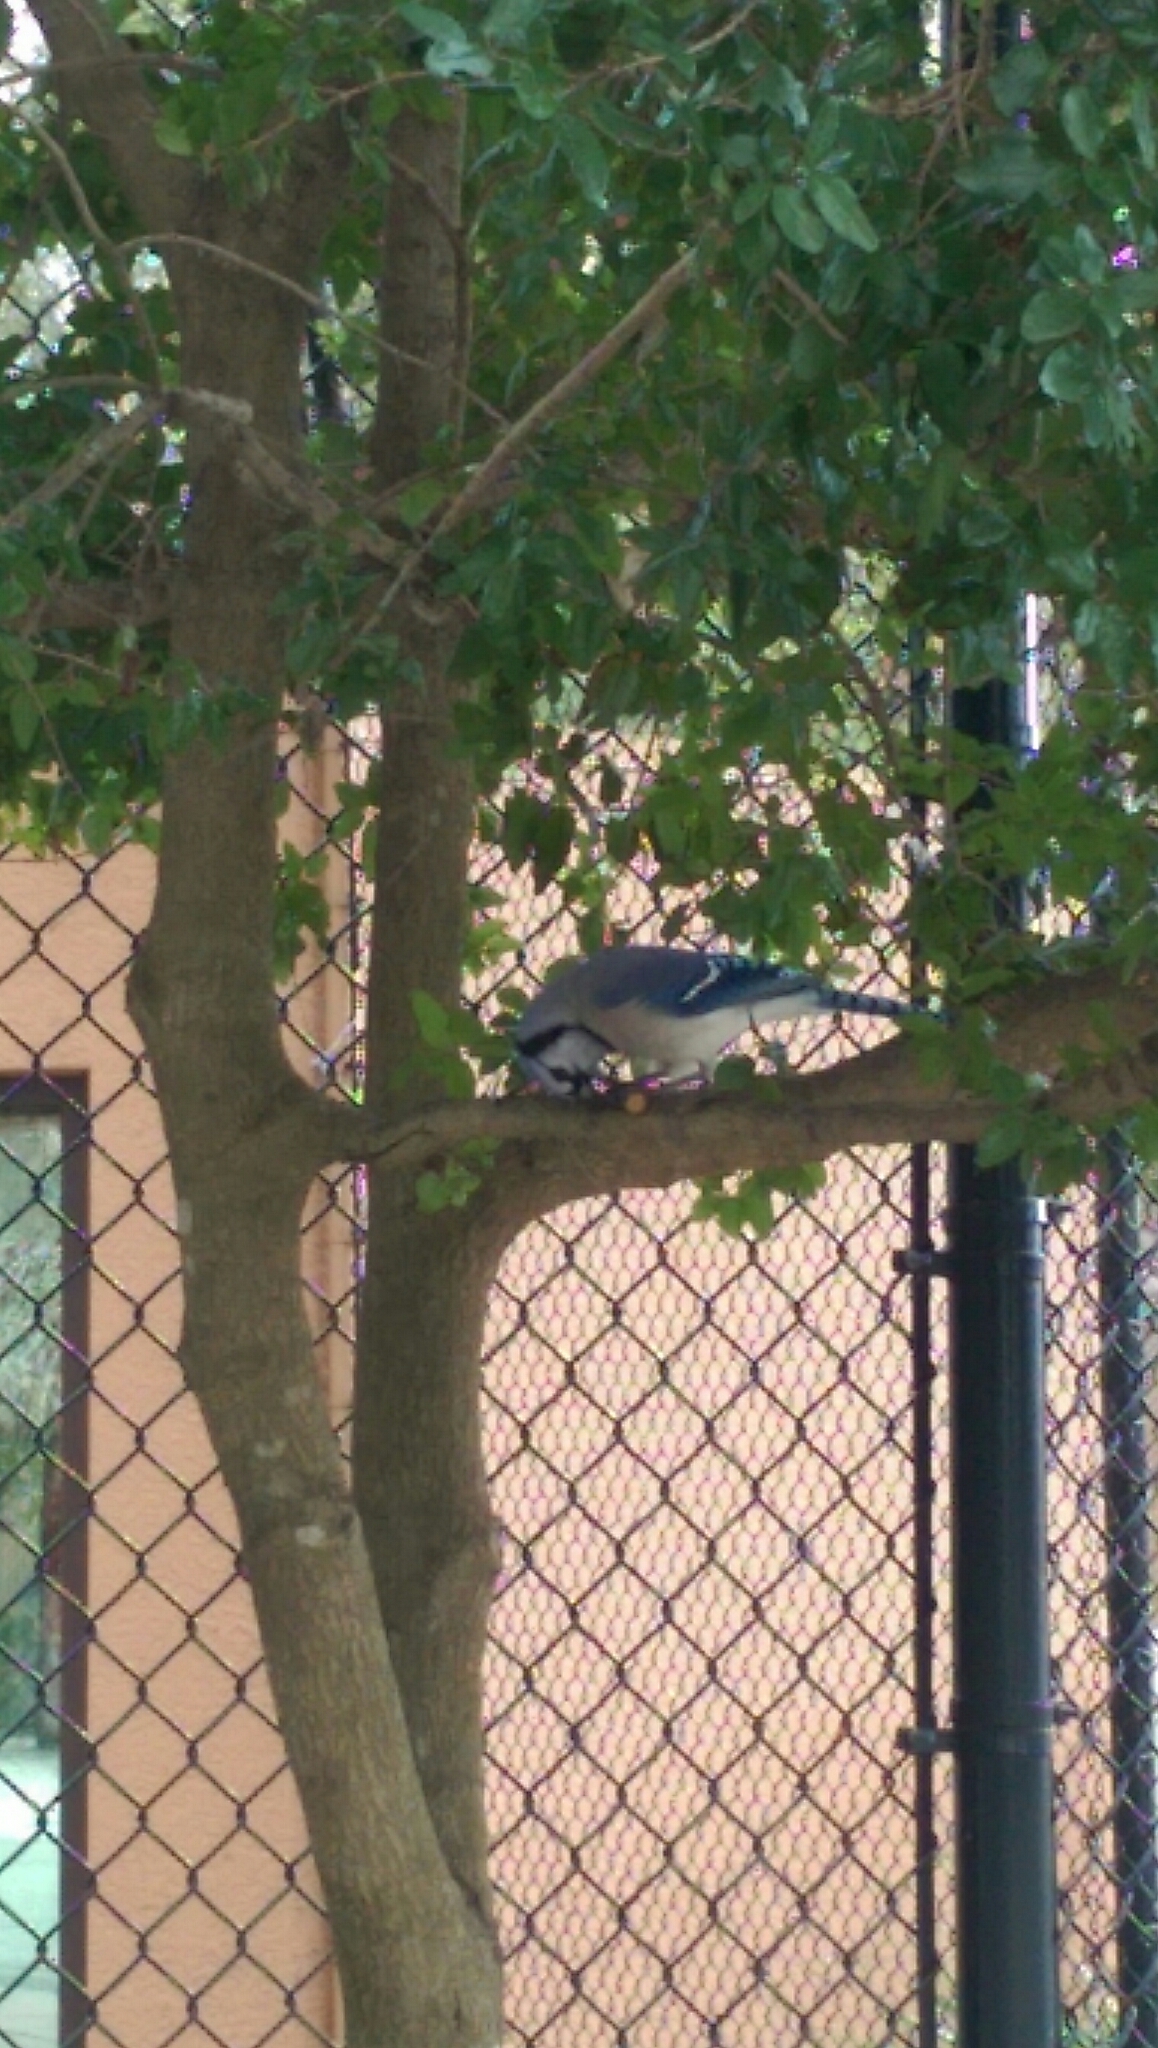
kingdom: Animalia
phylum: Chordata
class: Aves
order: Passeriformes
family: Corvidae
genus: Cyanocitta
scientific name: Cyanocitta cristata
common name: Blue jay
